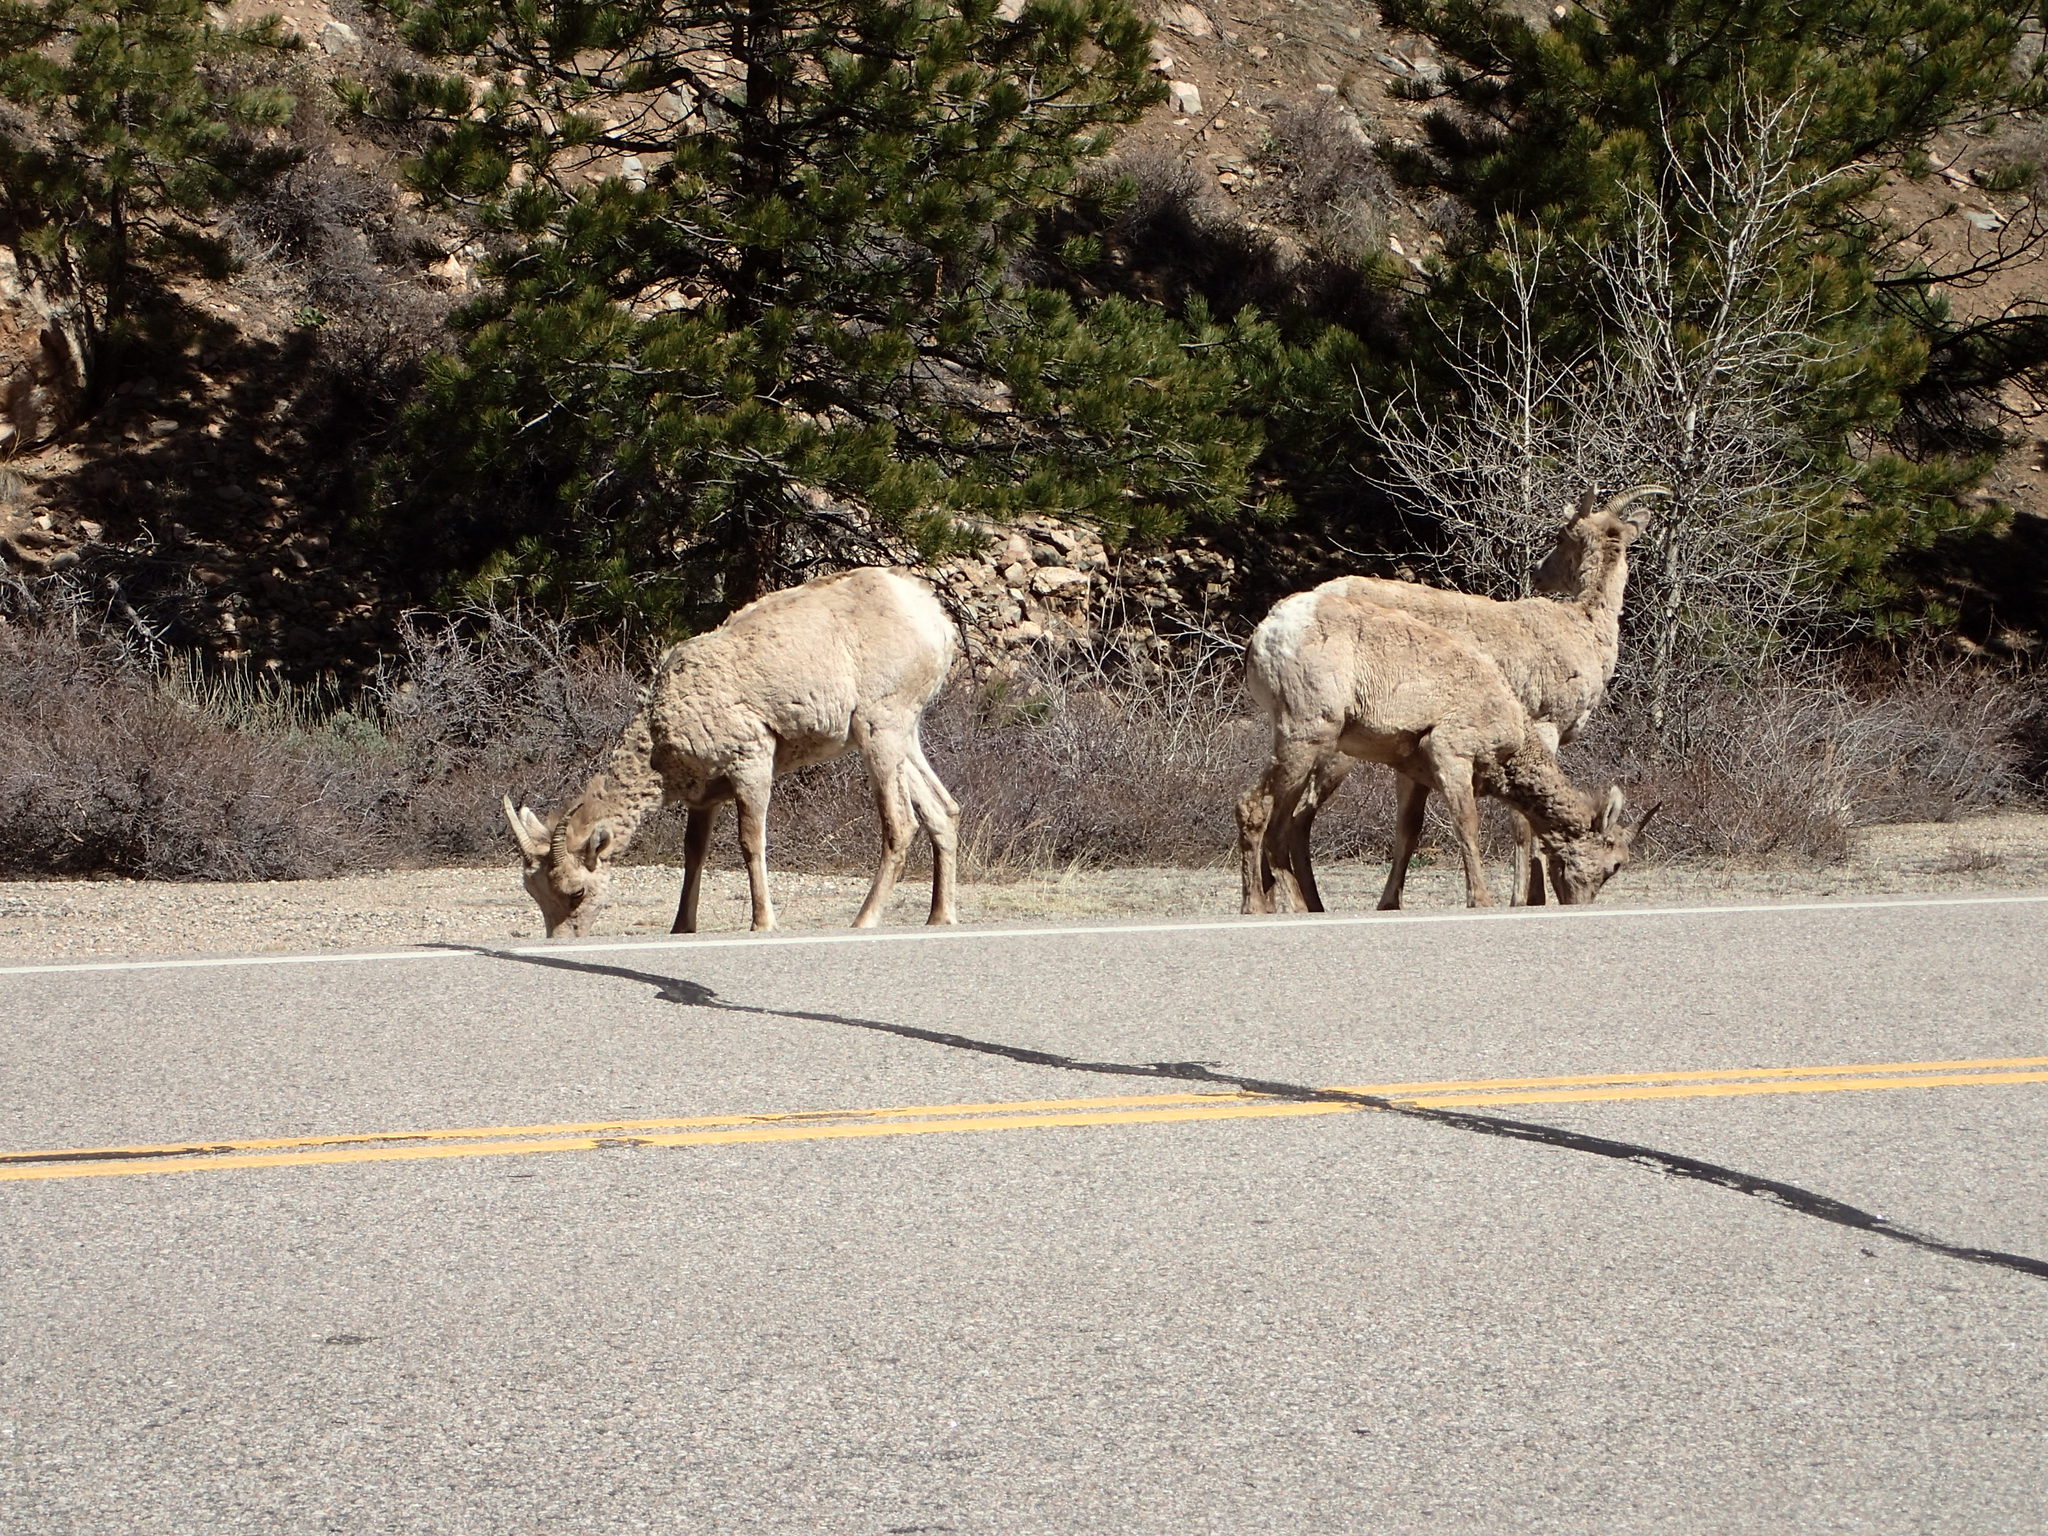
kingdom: Animalia
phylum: Chordata
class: Mammalia
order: Artiodactyla
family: Bovidae
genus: Ovis
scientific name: Ovis canadensis
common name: Bighorn sheep
